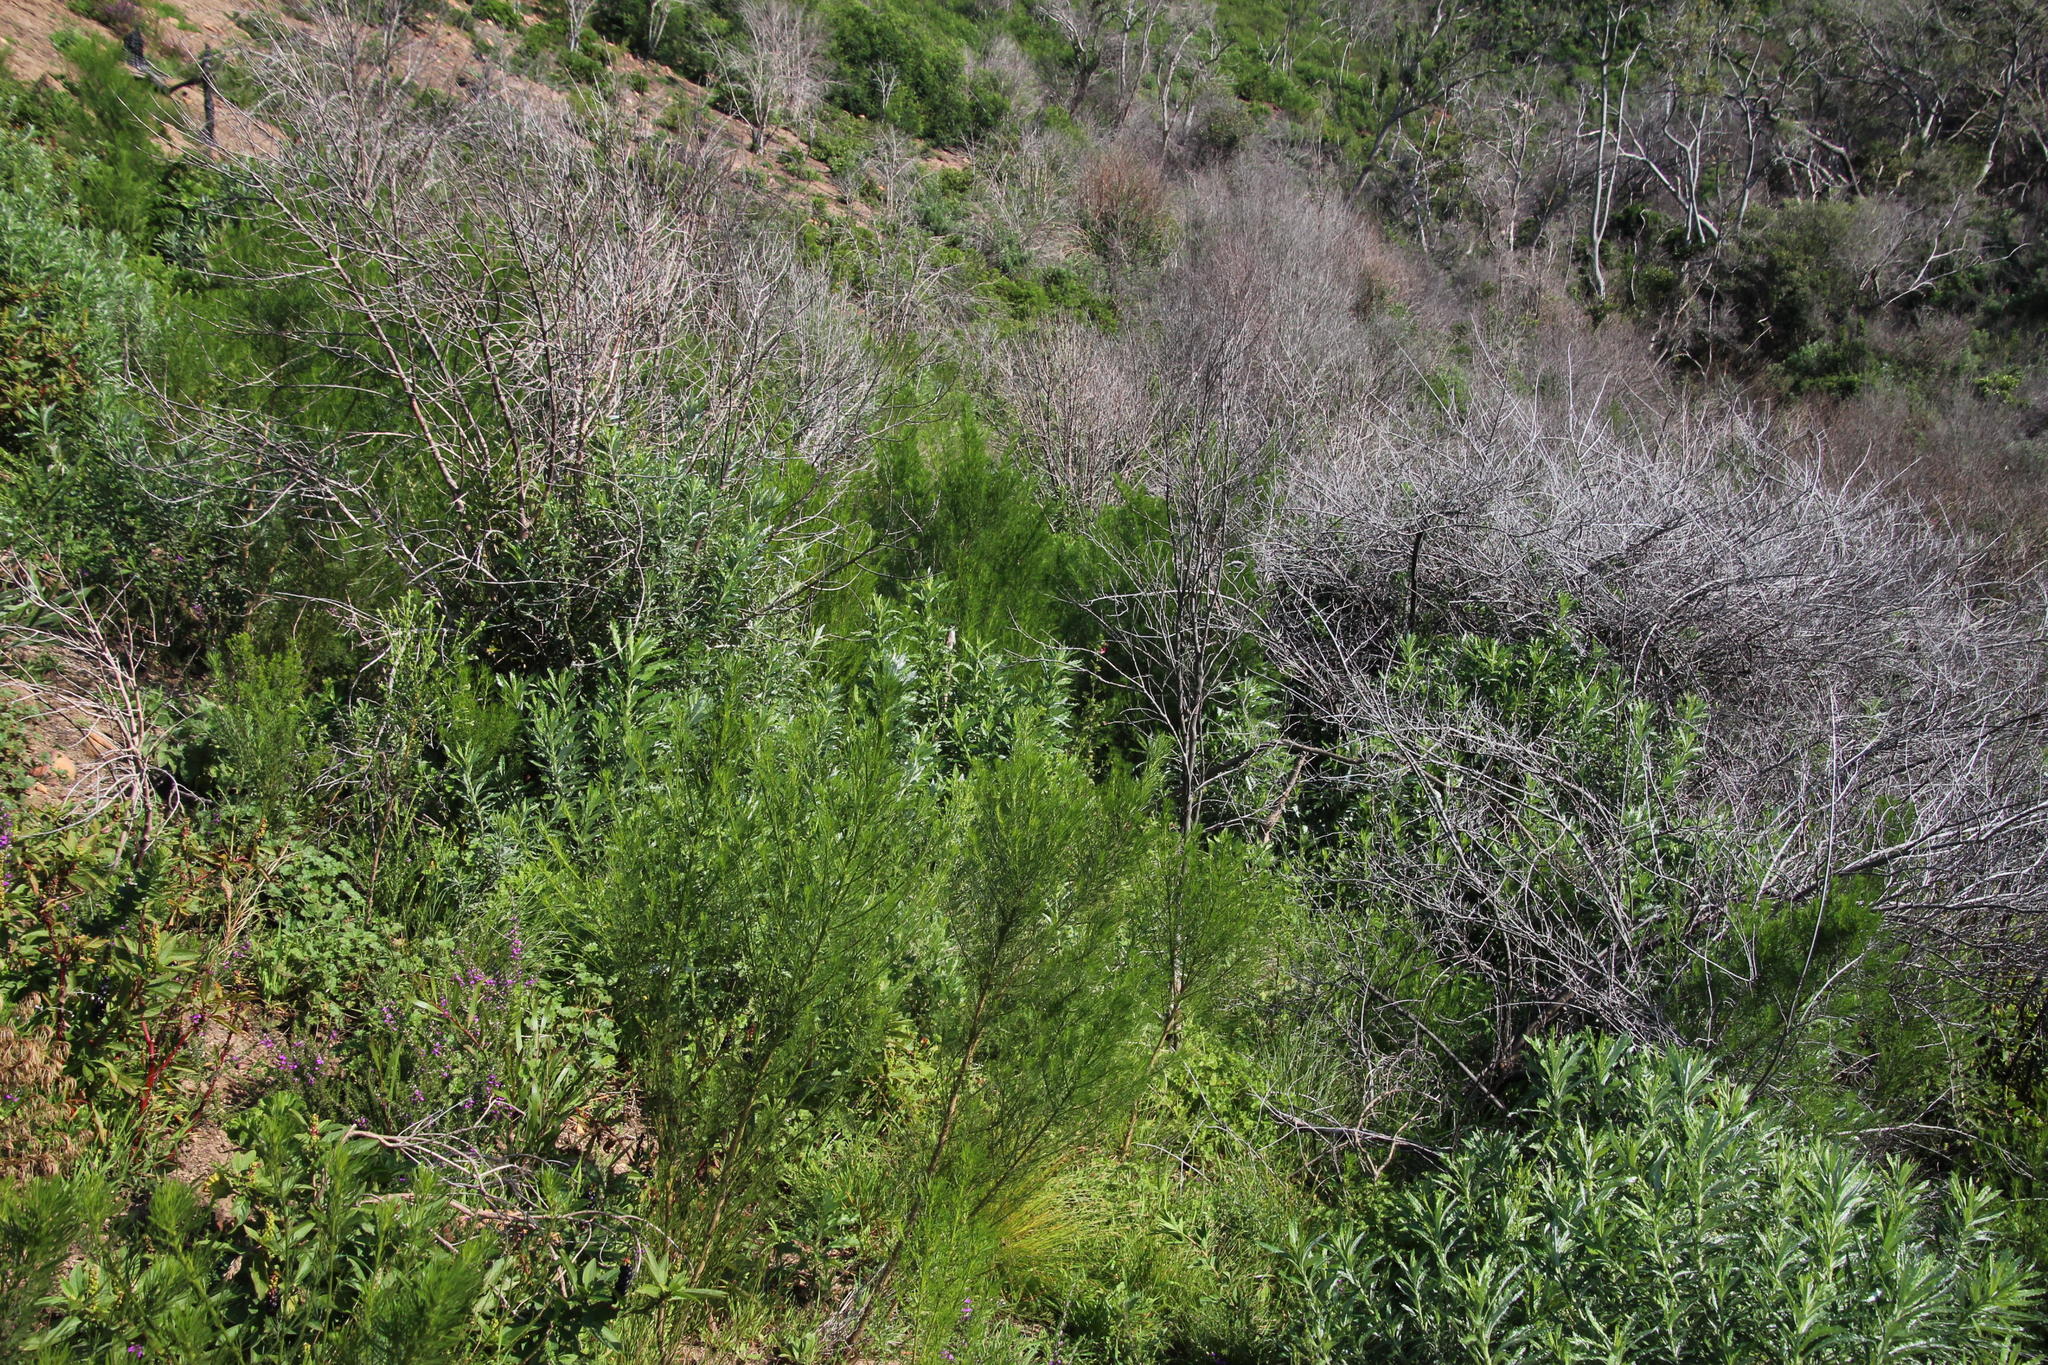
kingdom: Plantae
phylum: Tracheophyta
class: Magnoliopsida
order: Fabales
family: Fabaceae
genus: Psoralea
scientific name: Psoralea pinnata
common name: African scurfpea
